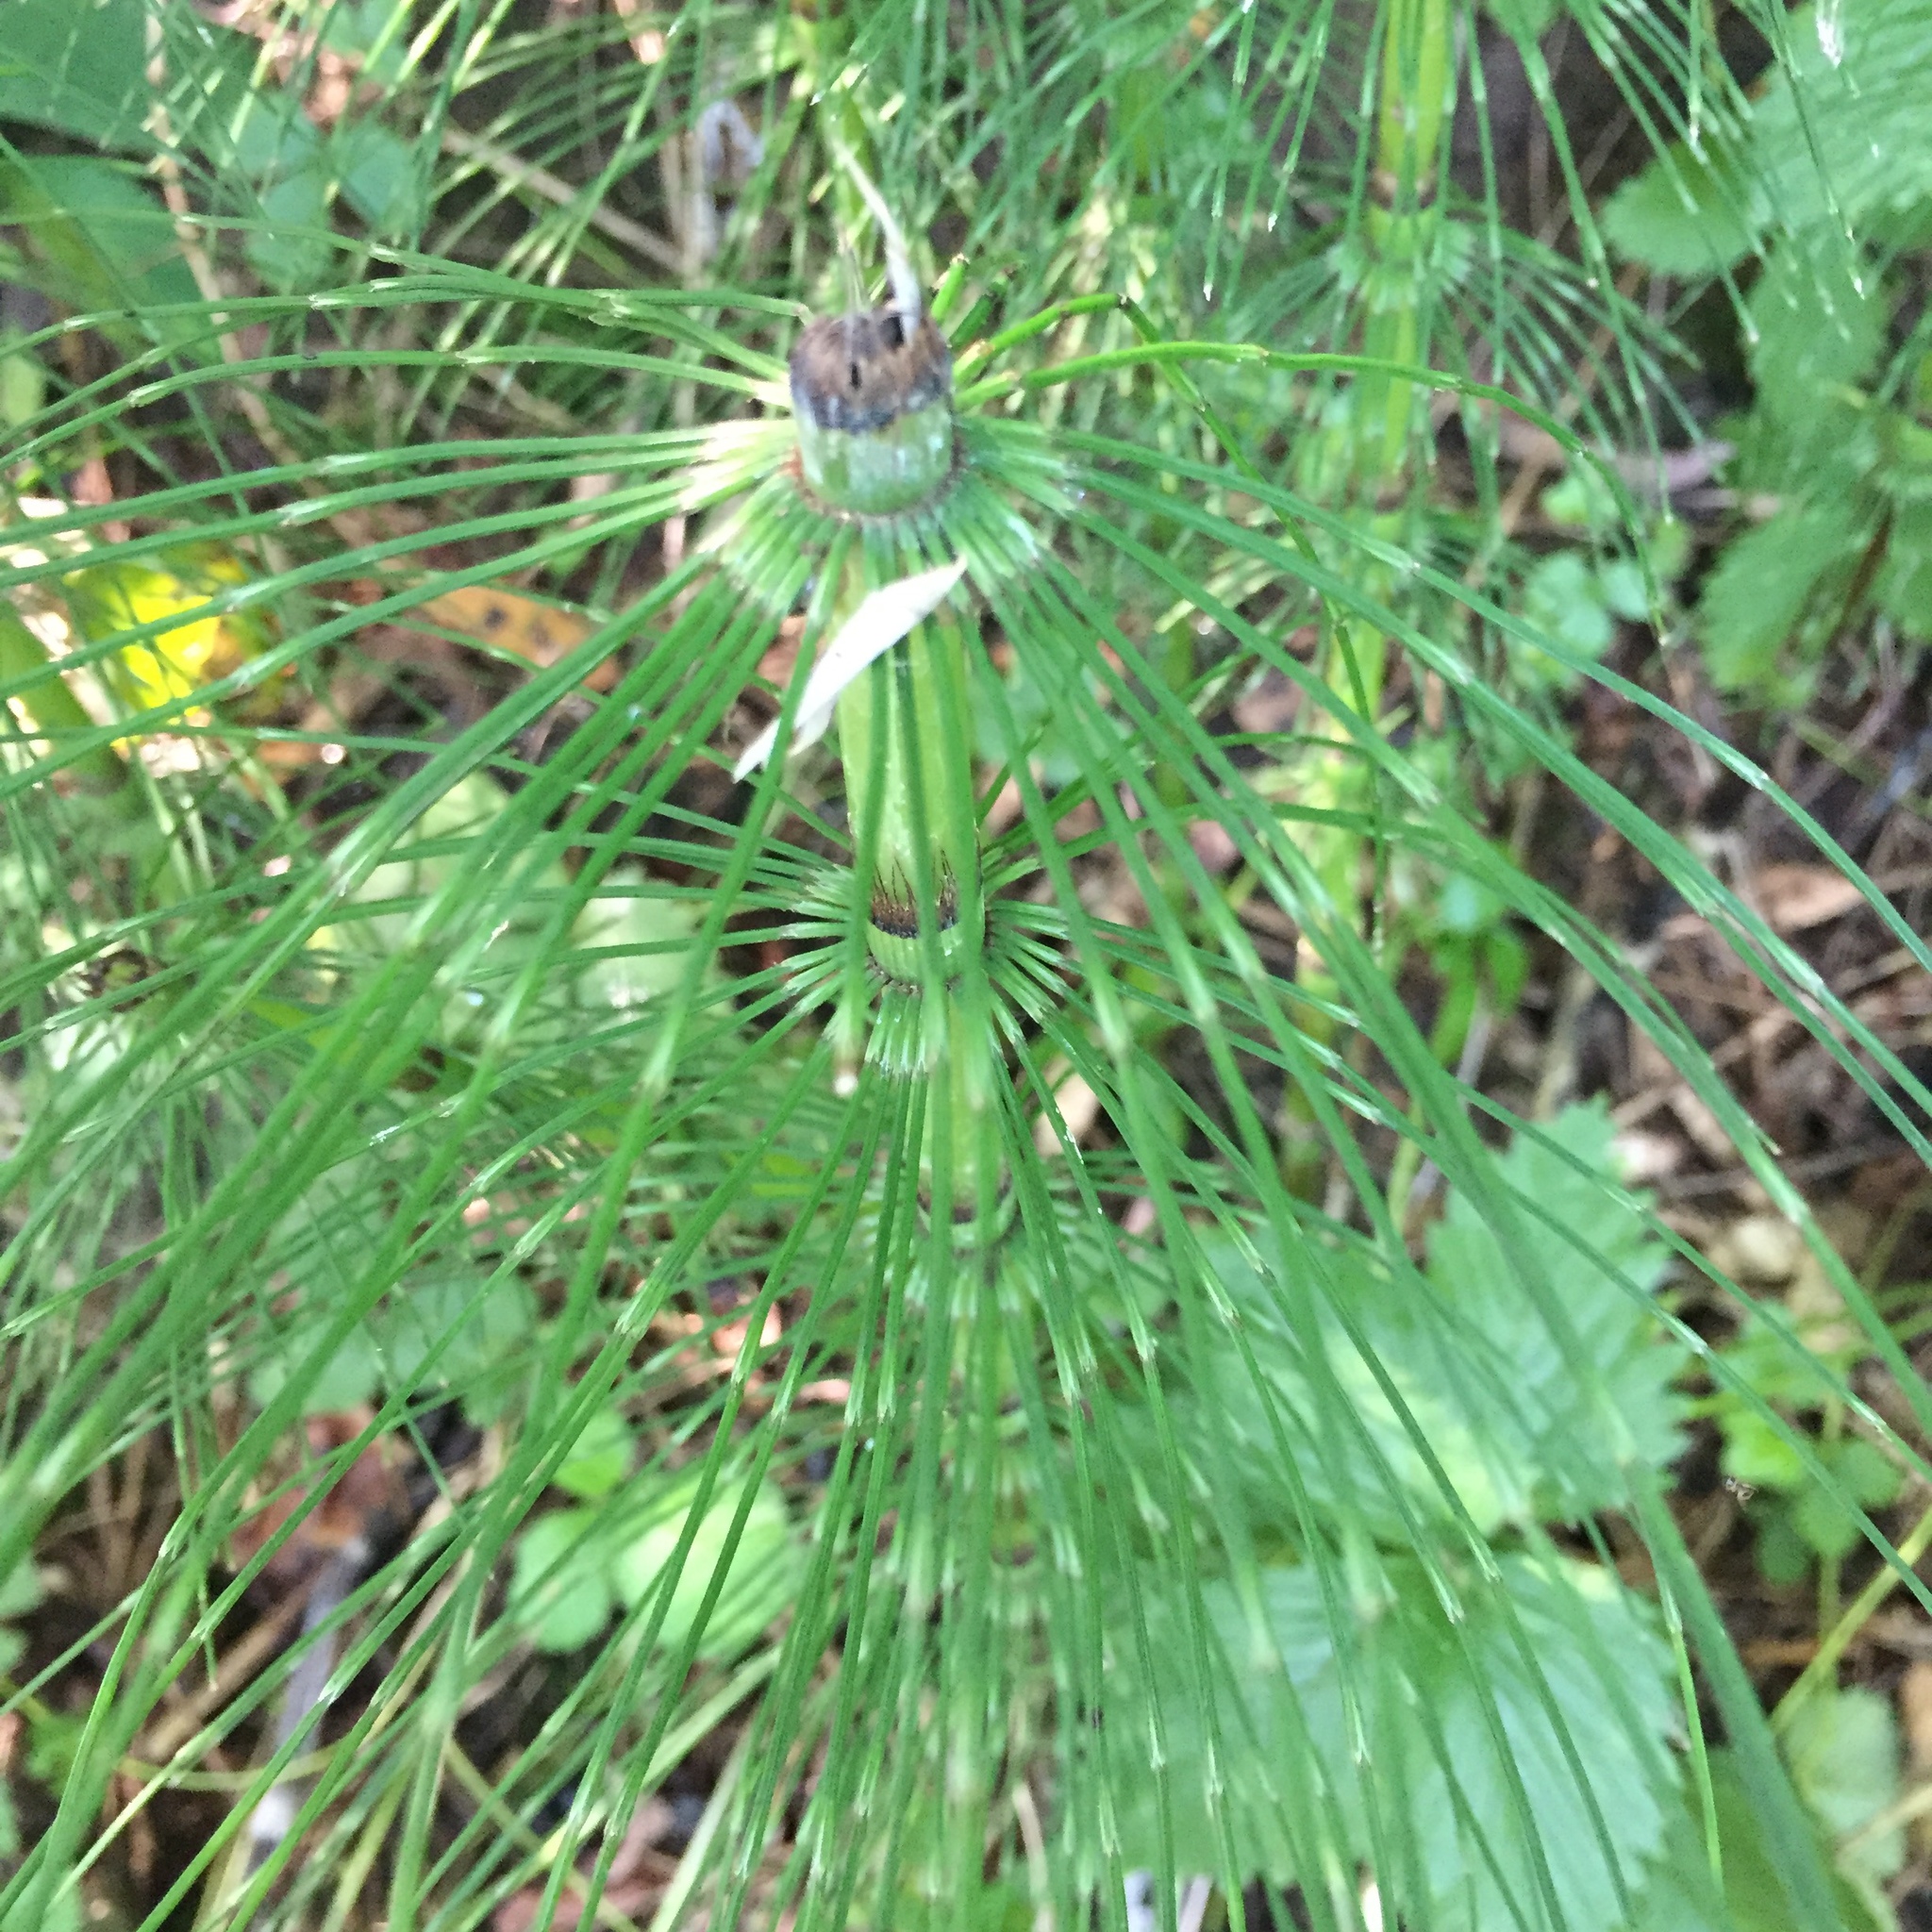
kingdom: Plantae
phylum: Tracheophyta
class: Polypodiopsida
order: Equisetales
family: Equisetaceae
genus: Equisetum
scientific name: Equisetum telmateia
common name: Great horsetail
